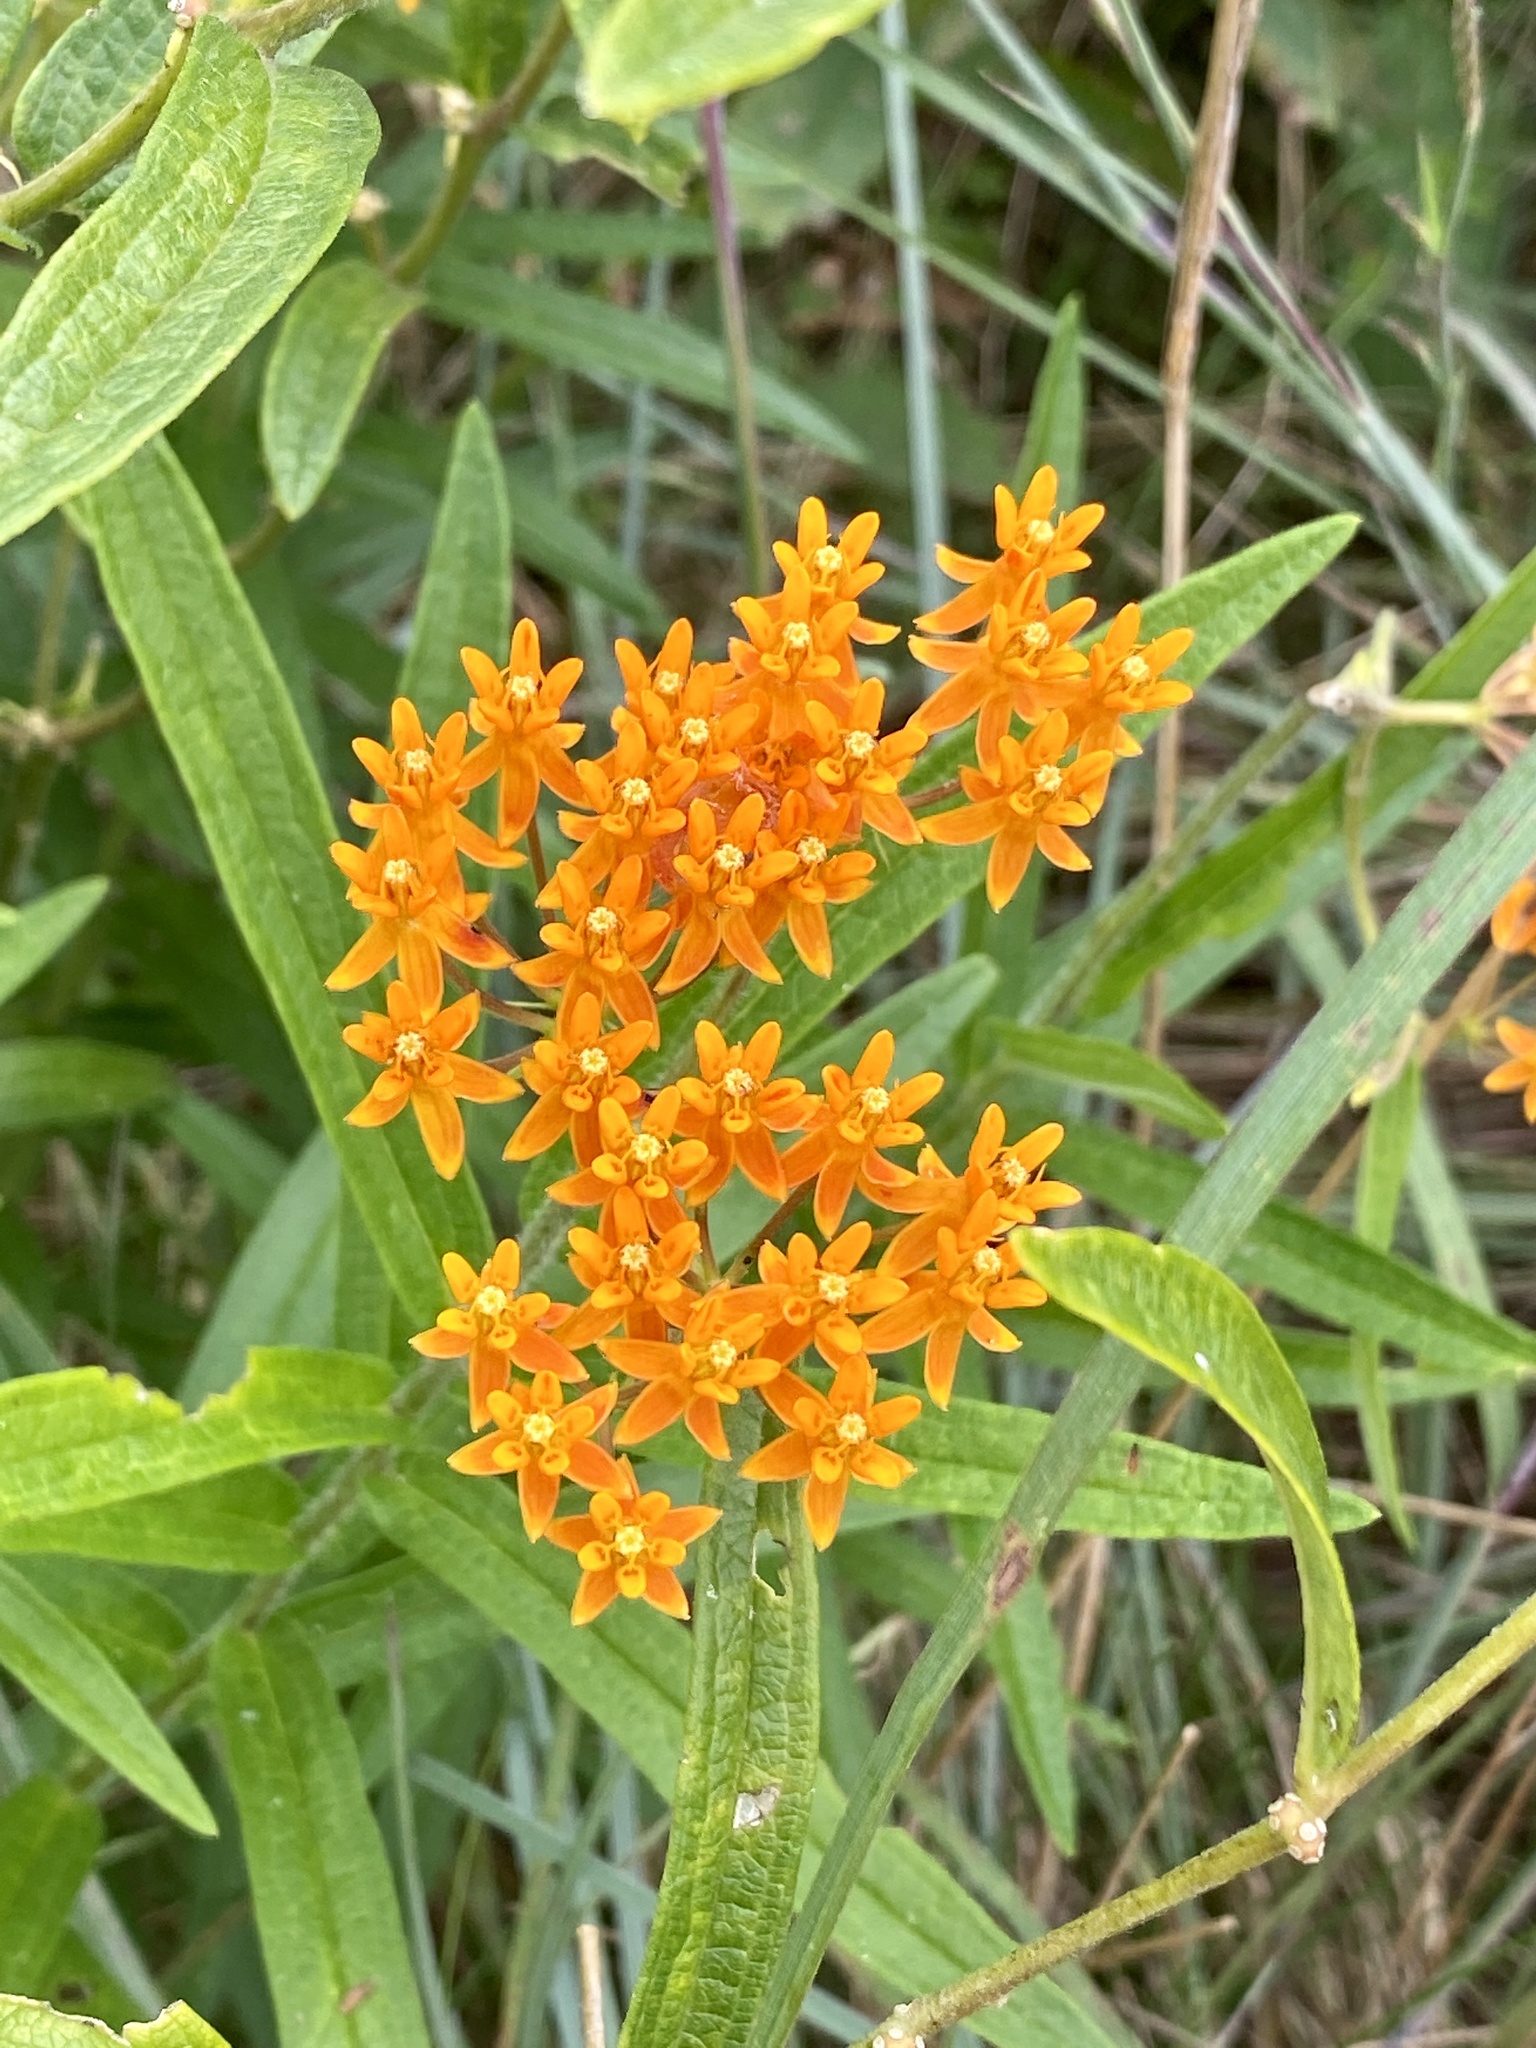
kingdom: Plantae
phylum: Tracheophyta
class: Magnoliopsida
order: Gentianales
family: Apocynaceae
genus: Asclepias
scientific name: Asclepias tuberosa
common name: Butterfly milkweed
